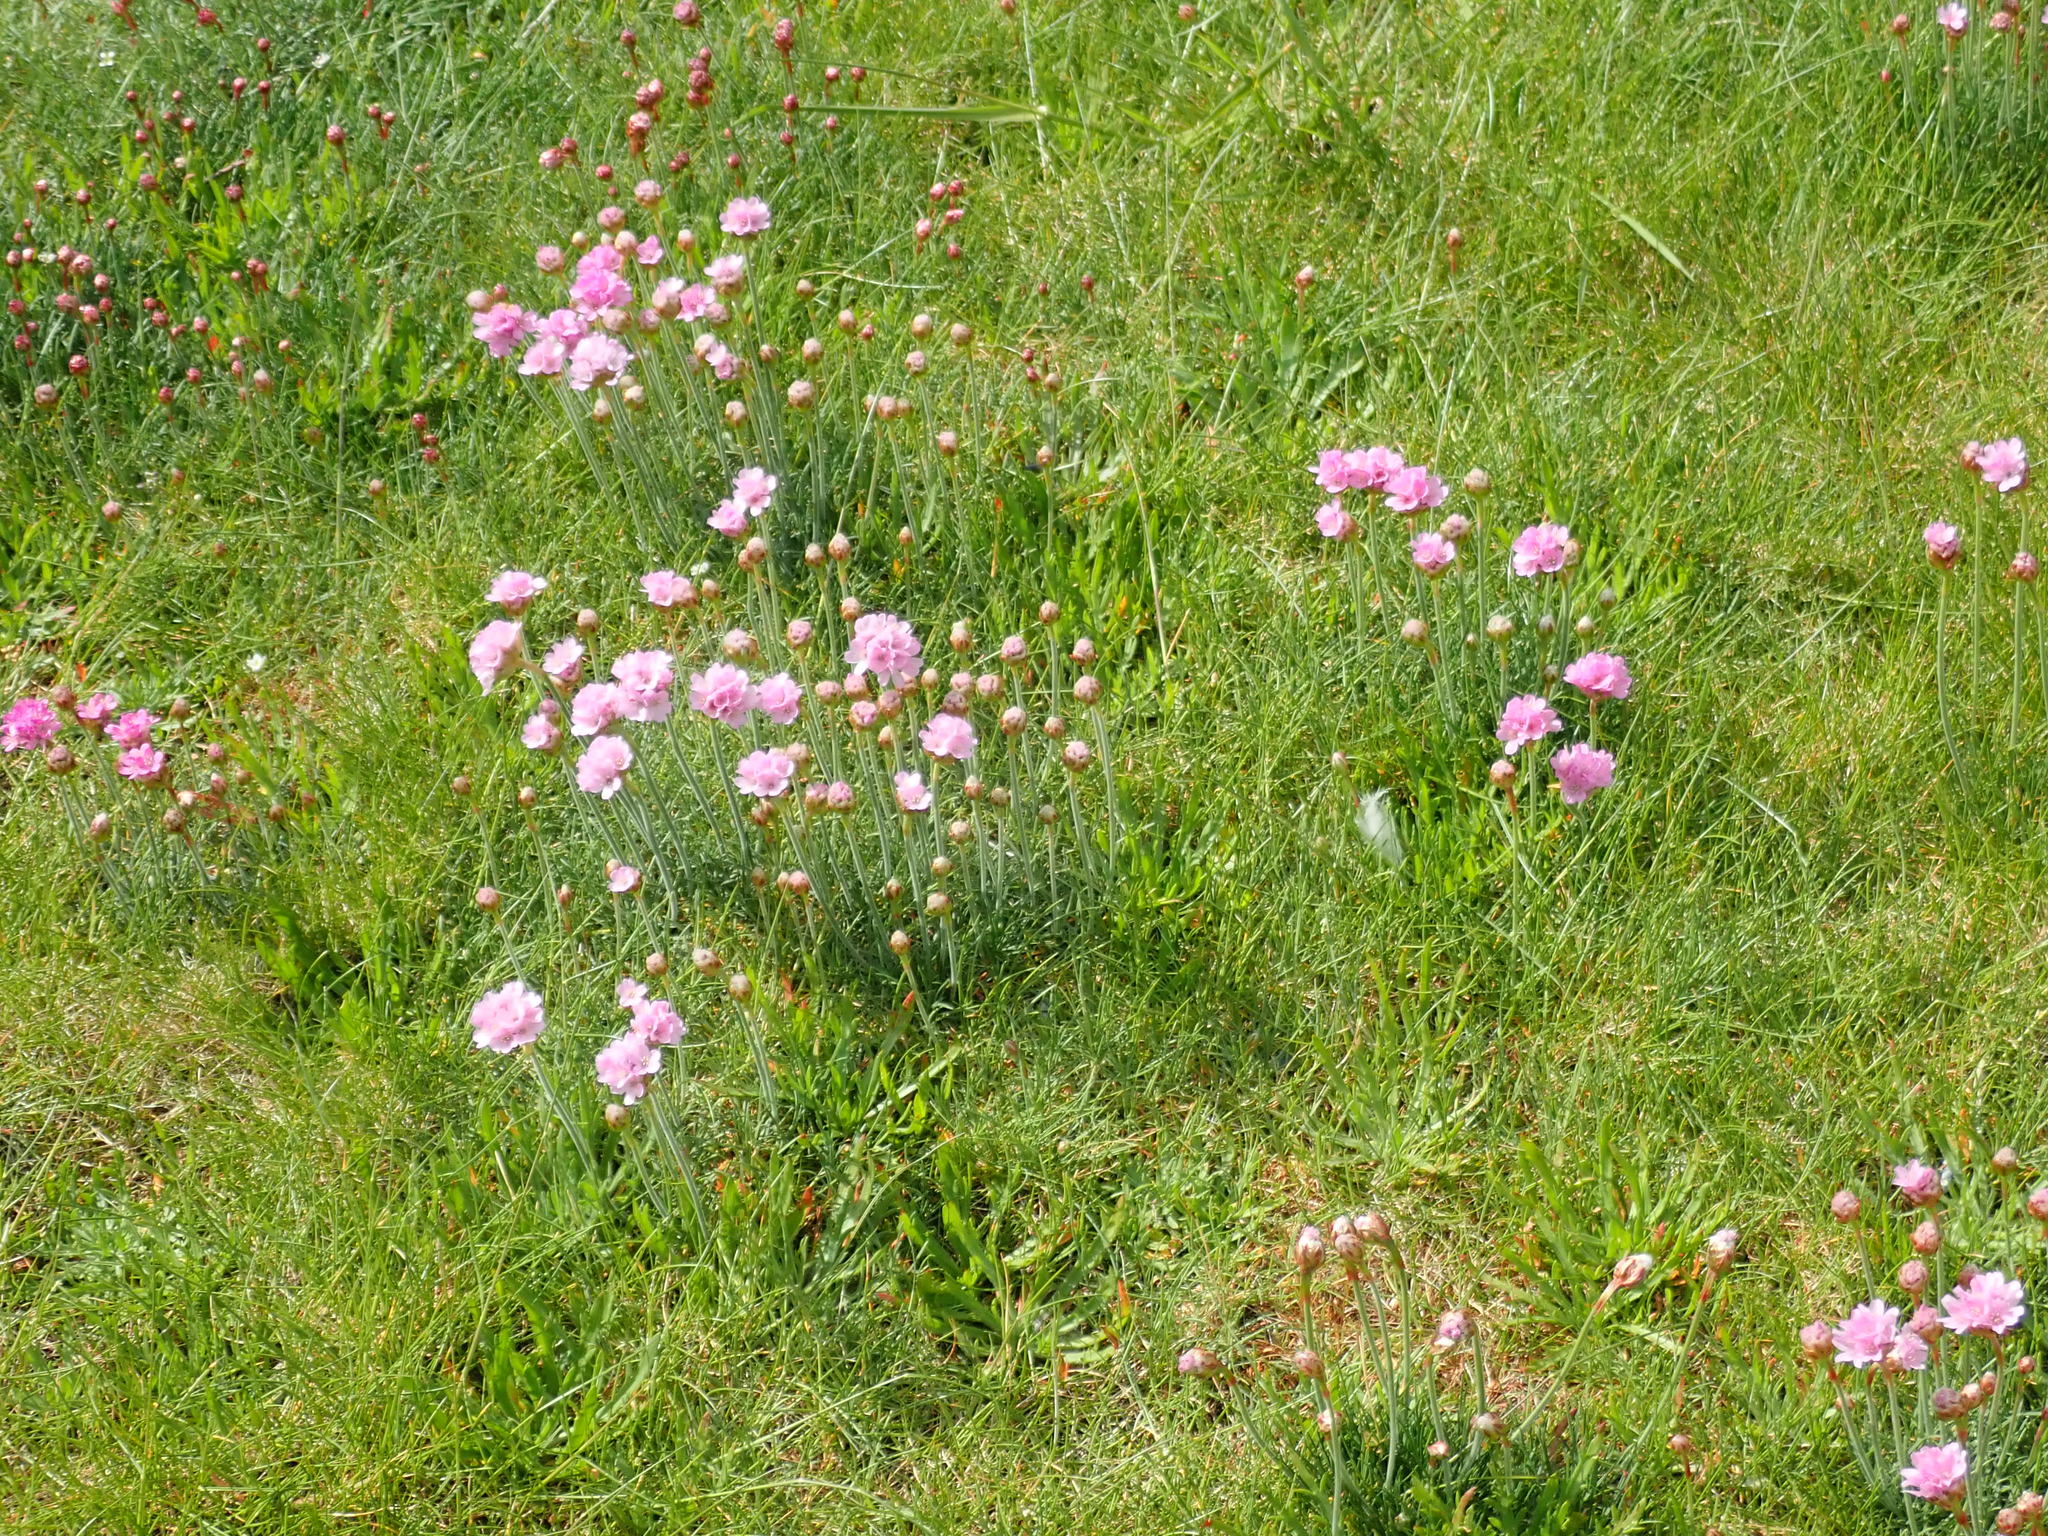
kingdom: Plantae
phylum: Tracheophyta
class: Magnoliopsida
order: Caryophyllales
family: Plumbaginaceae
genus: Armeria
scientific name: Armeria maritima
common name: Thrift
